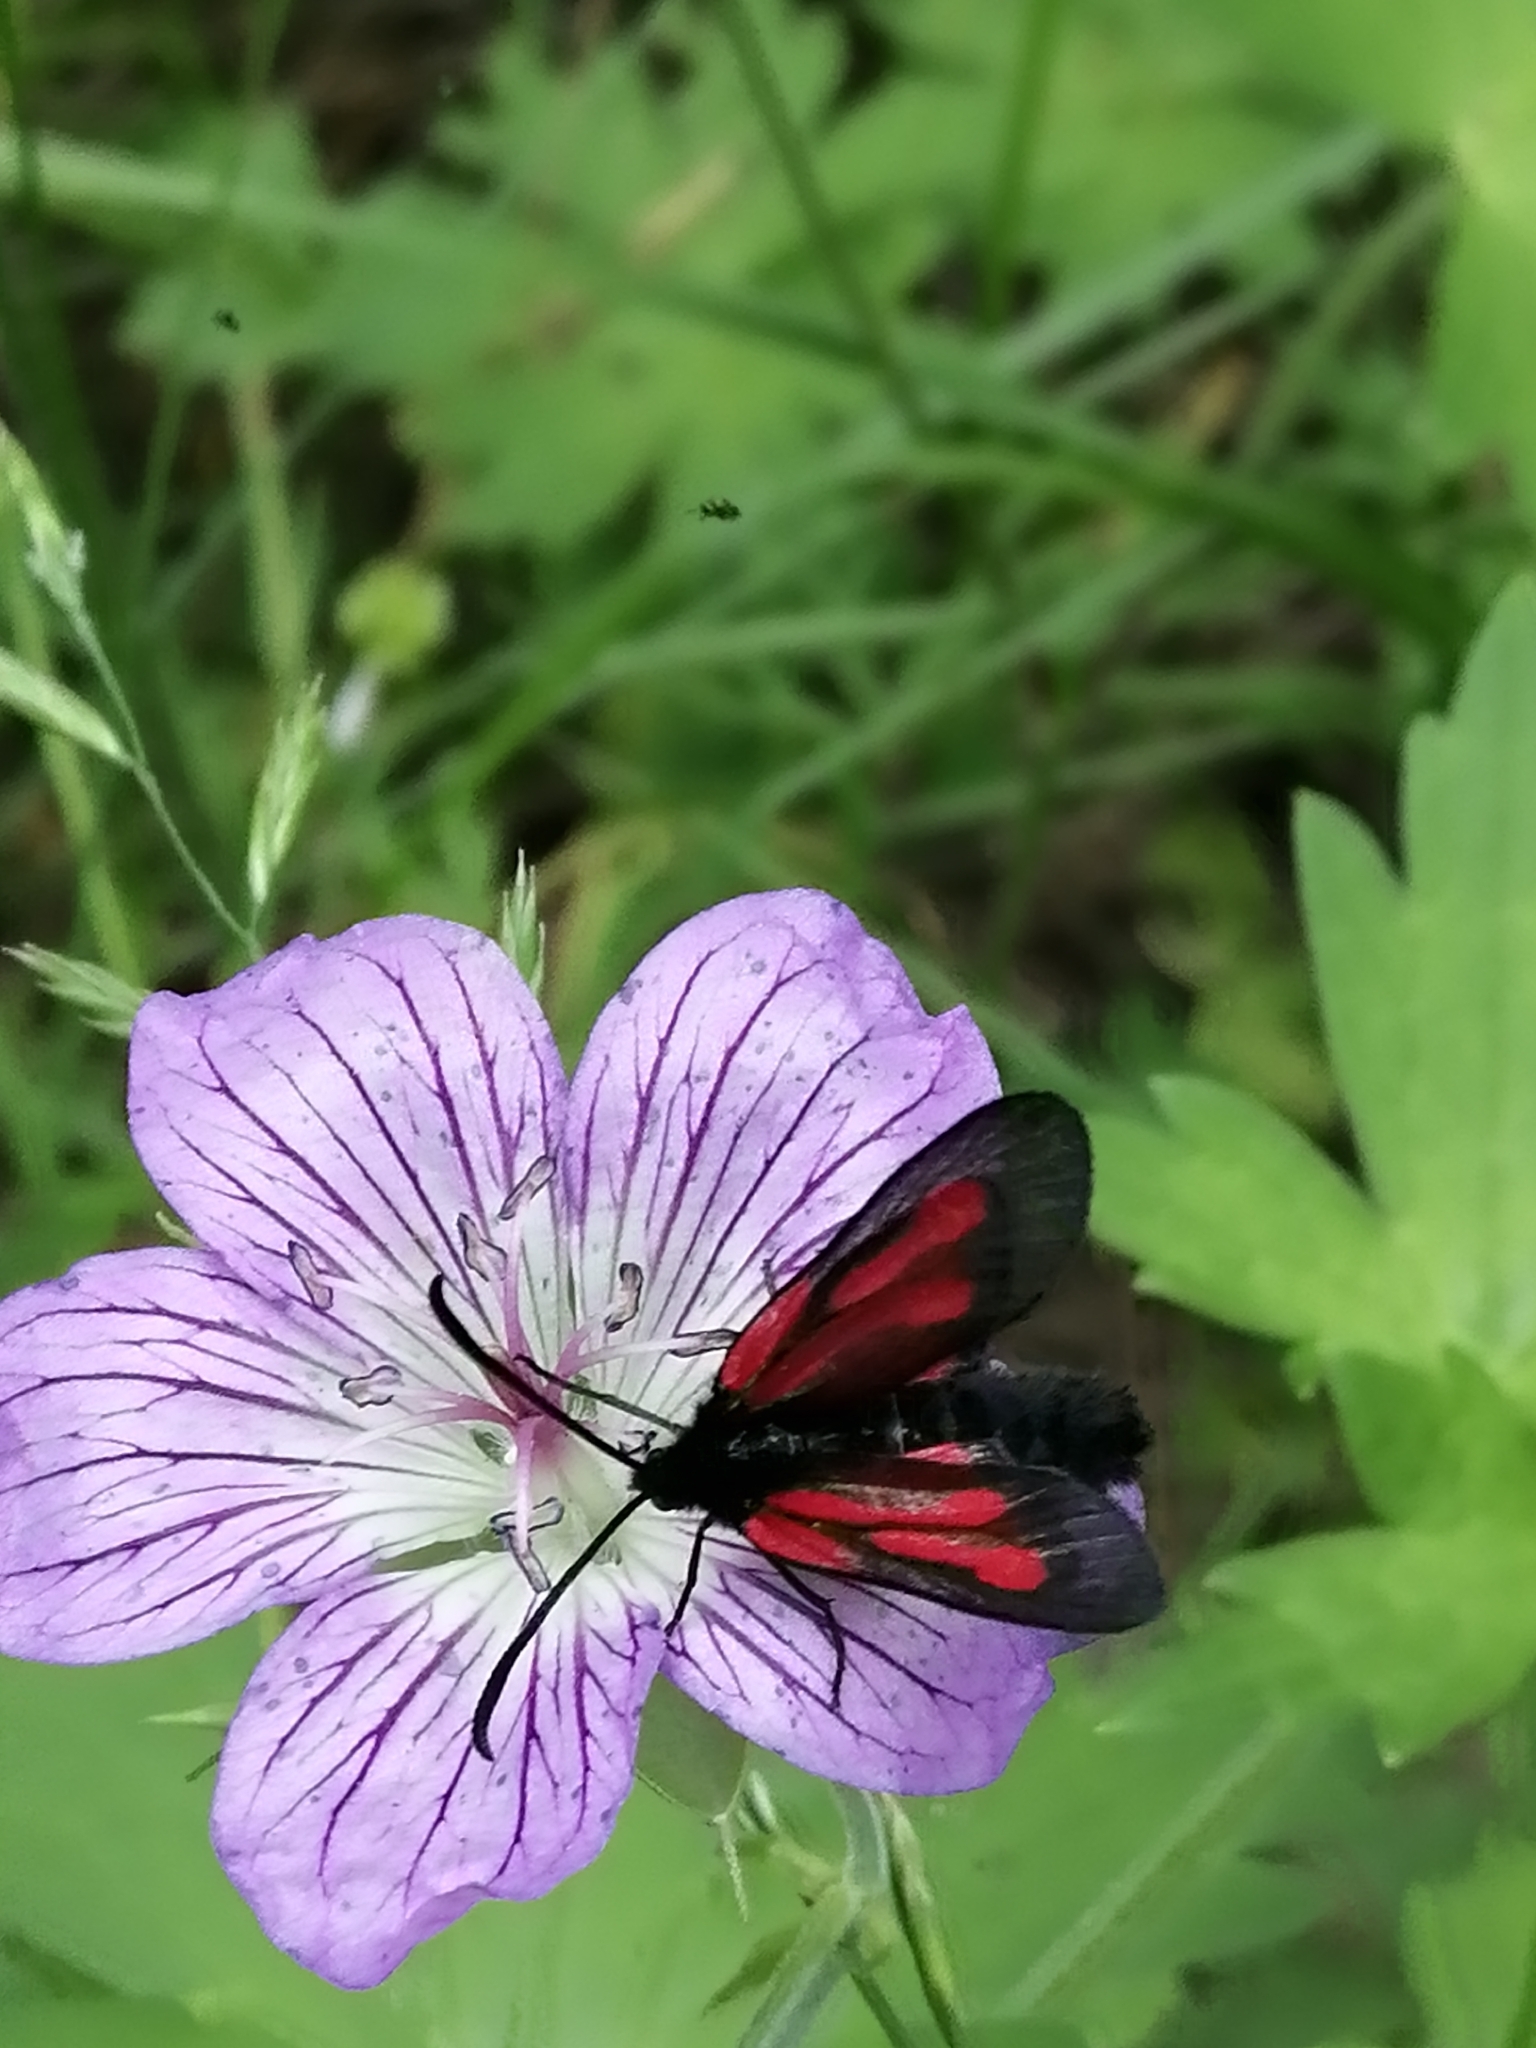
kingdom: Animalia
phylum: Arthropoda
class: Insecta
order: Lepidoptera
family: Zygaenidae
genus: Zygaena
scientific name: Zygaena osterodensis
